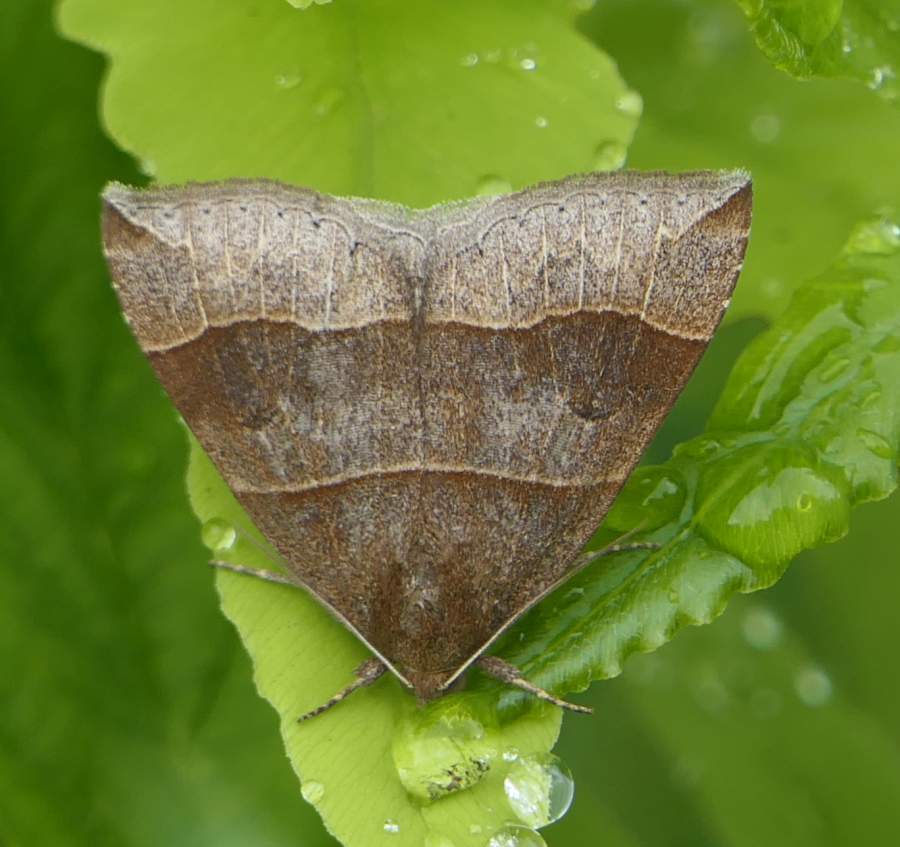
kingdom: Animalia
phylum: Arthropoda
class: Insecta
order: Lepidoptera
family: Erebidae
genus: Parallelia
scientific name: Parallelia bistriaris
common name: Maple looper moth
